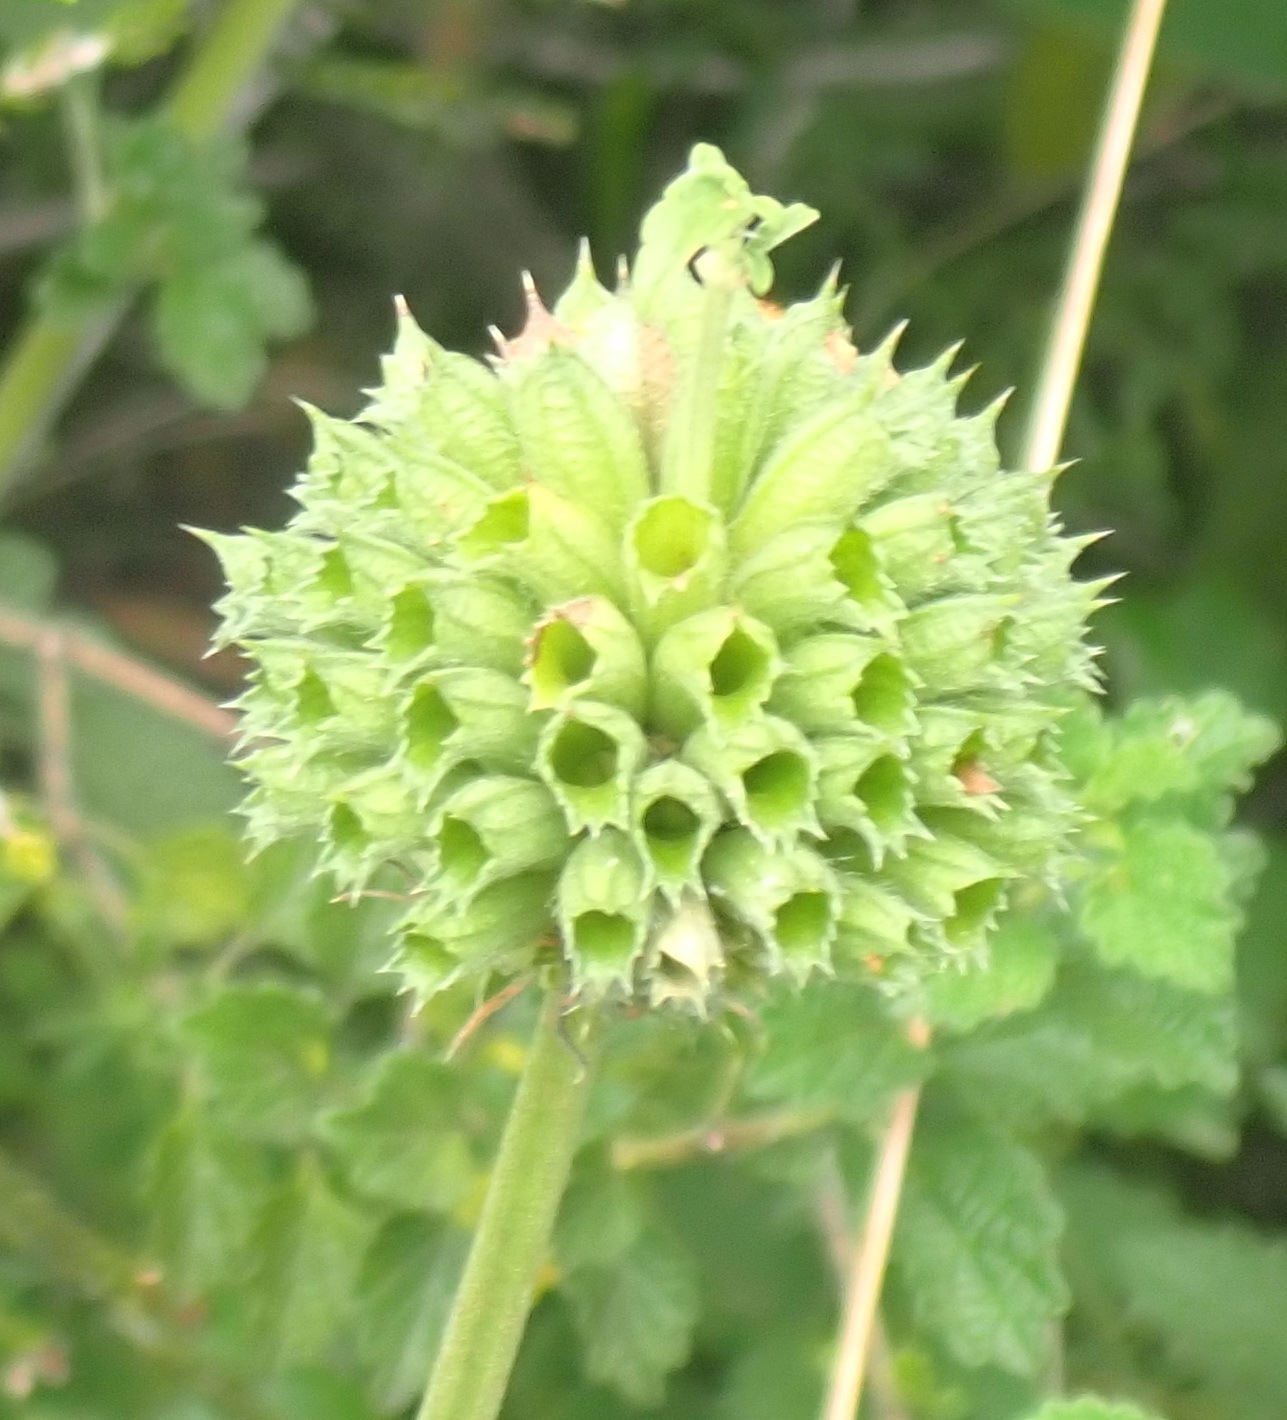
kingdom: Plantae
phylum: Tracheophyta
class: Magnoliopsida
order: Lamiales
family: Lamiaceae
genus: Leonotis
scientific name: Leonotis ocymifolia
